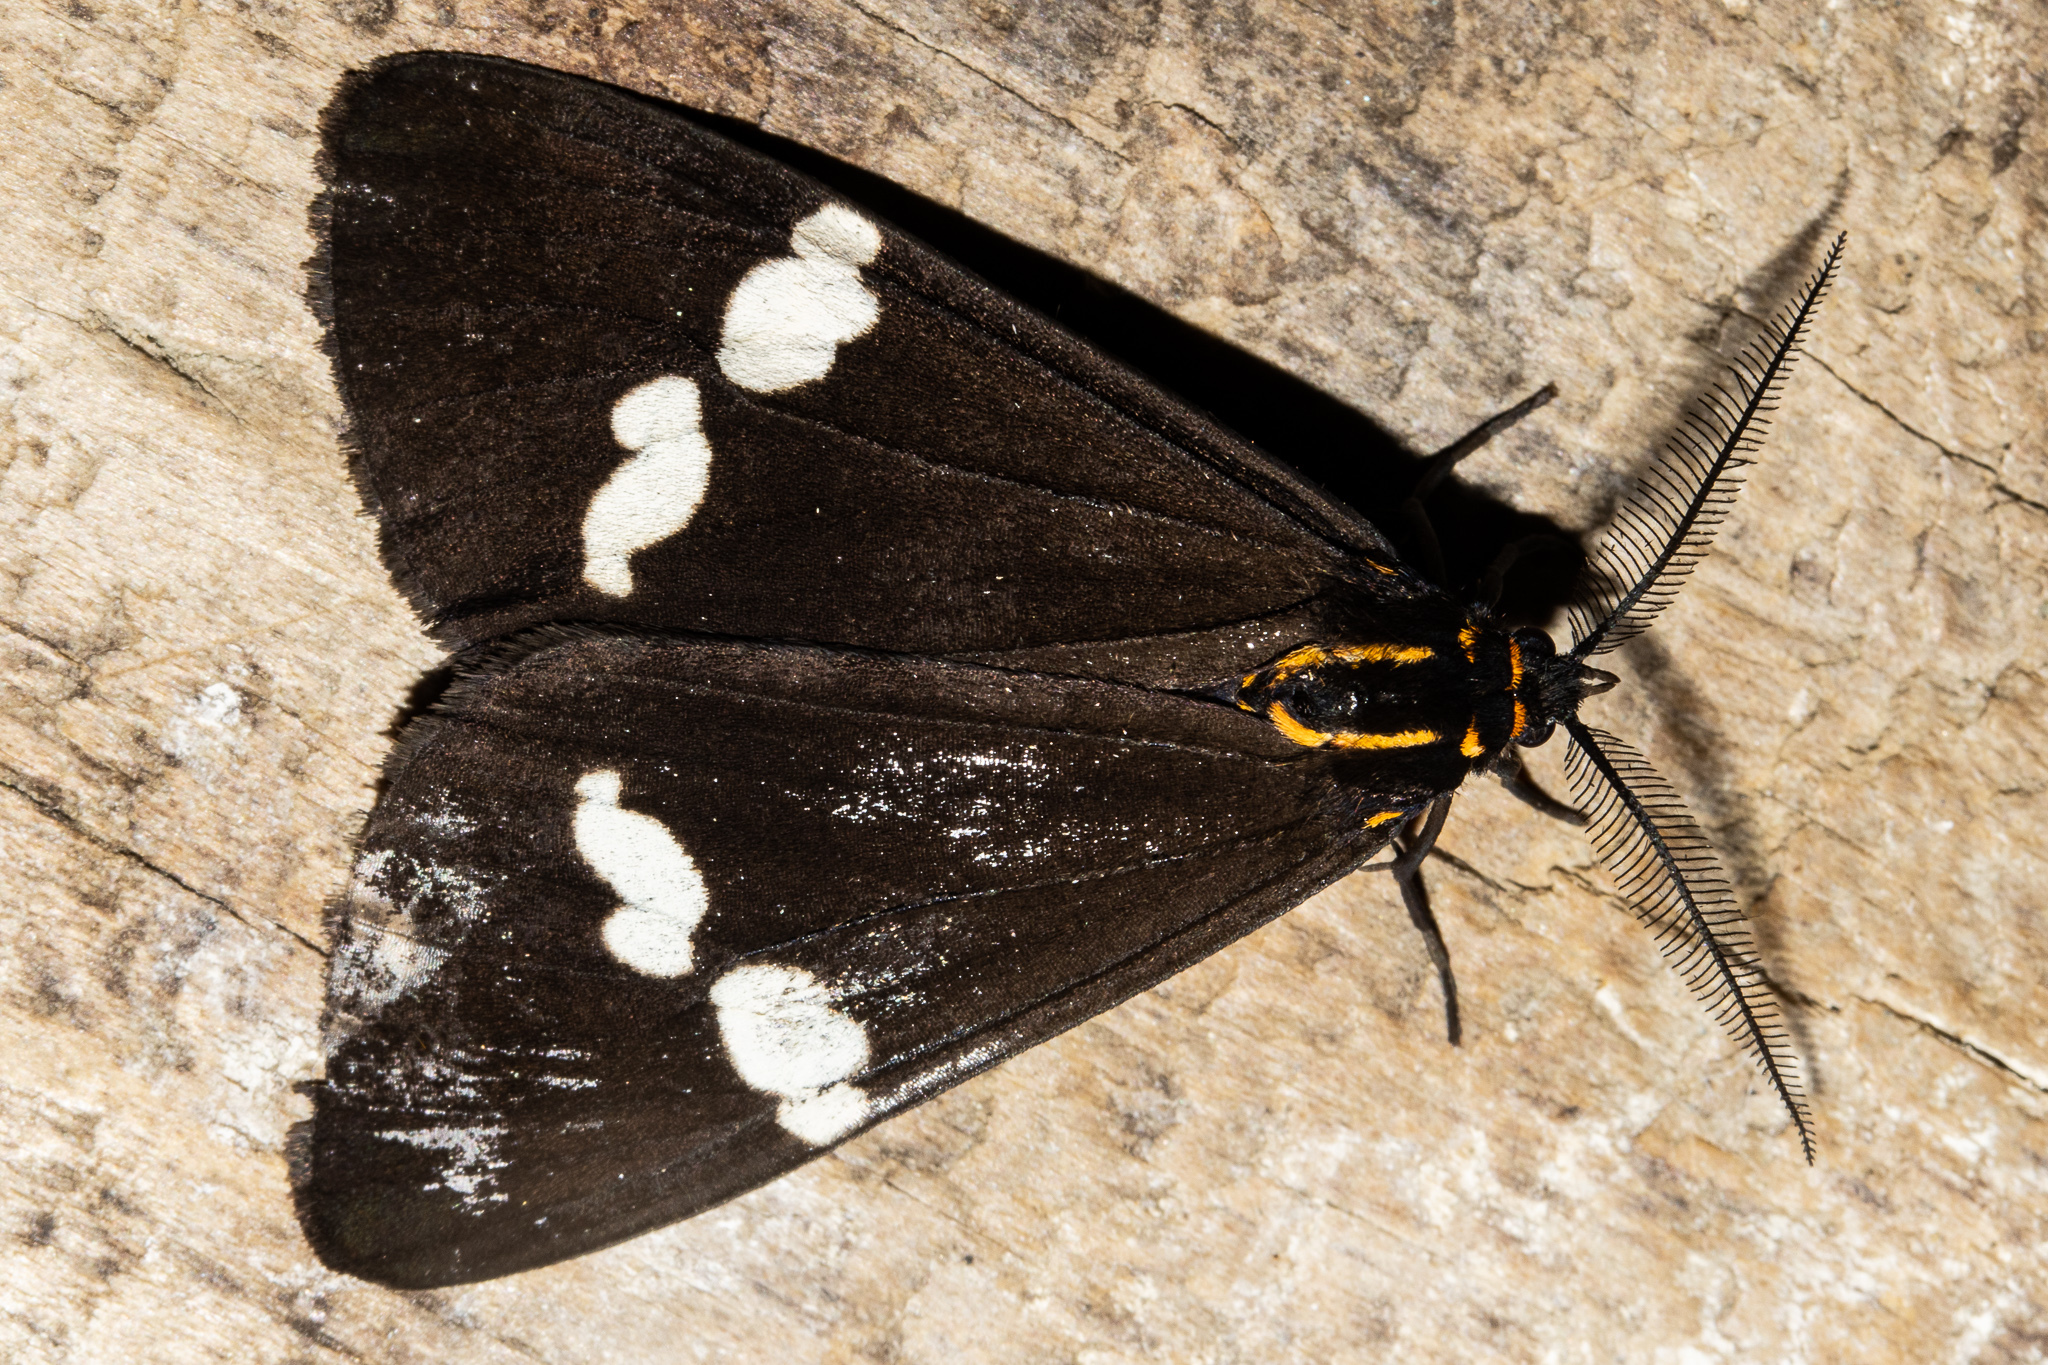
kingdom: Animalia
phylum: Arthropoda
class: Insecta
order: Lepidoptera
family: Erebidae
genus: Nyctemera
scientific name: Nyctemera annulatum
